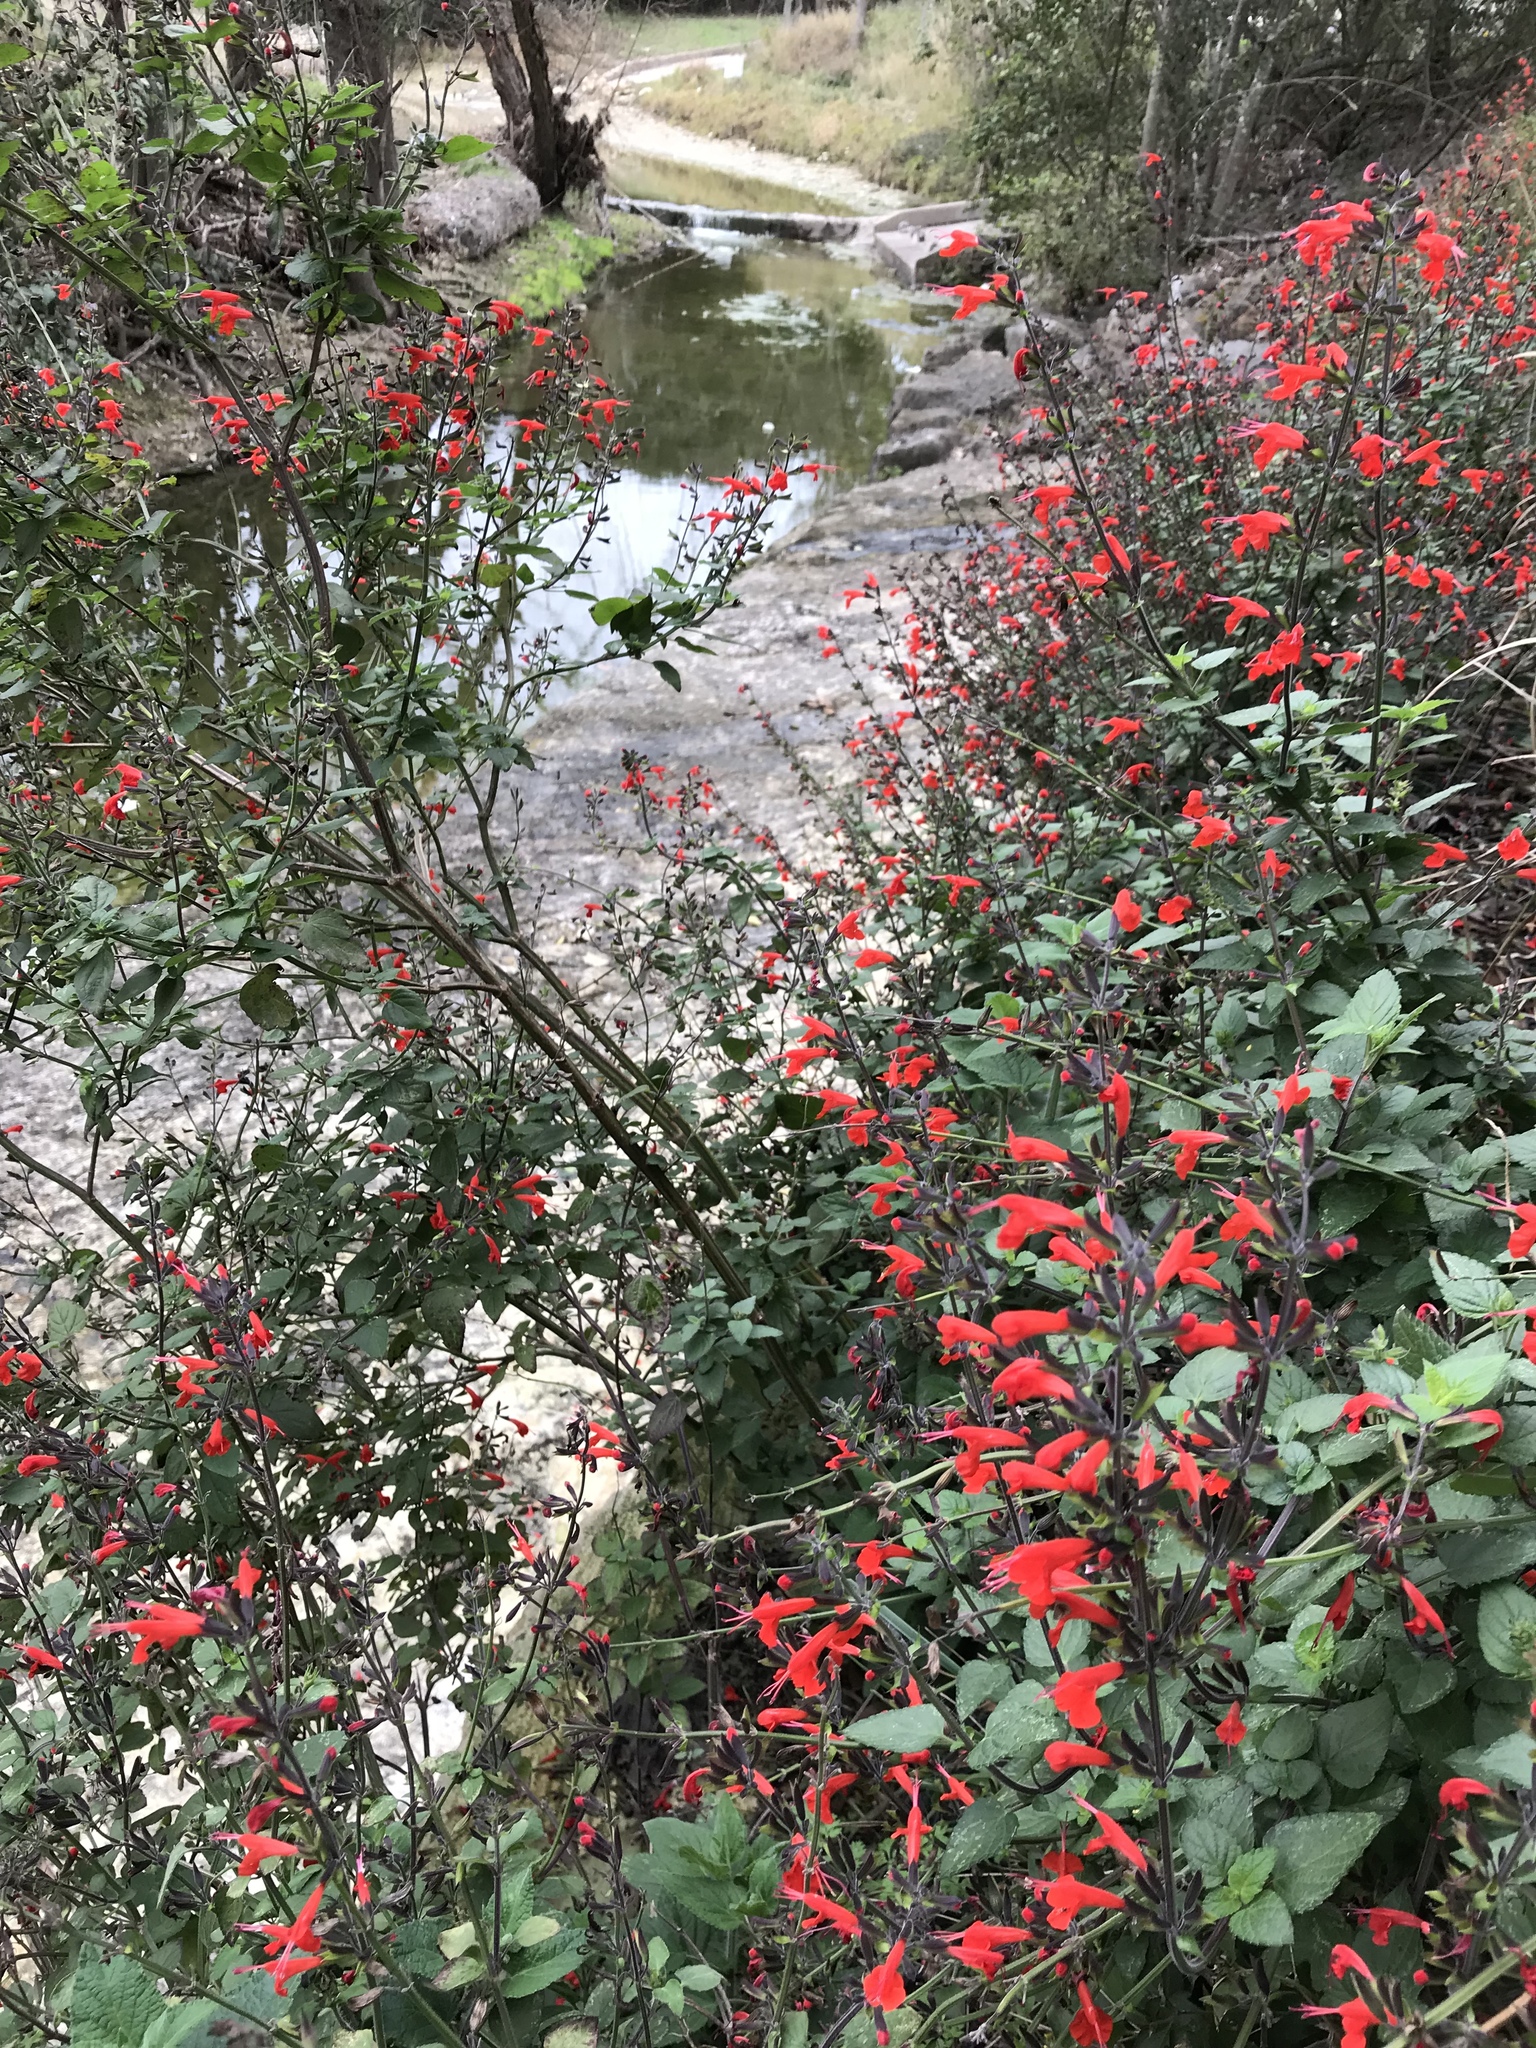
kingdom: Plantae
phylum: Tracheophyta
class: Magnoliopsida
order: Lamiales
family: Lamiaceae
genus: Salvia
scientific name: Salvia coccinea
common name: Blood sage
